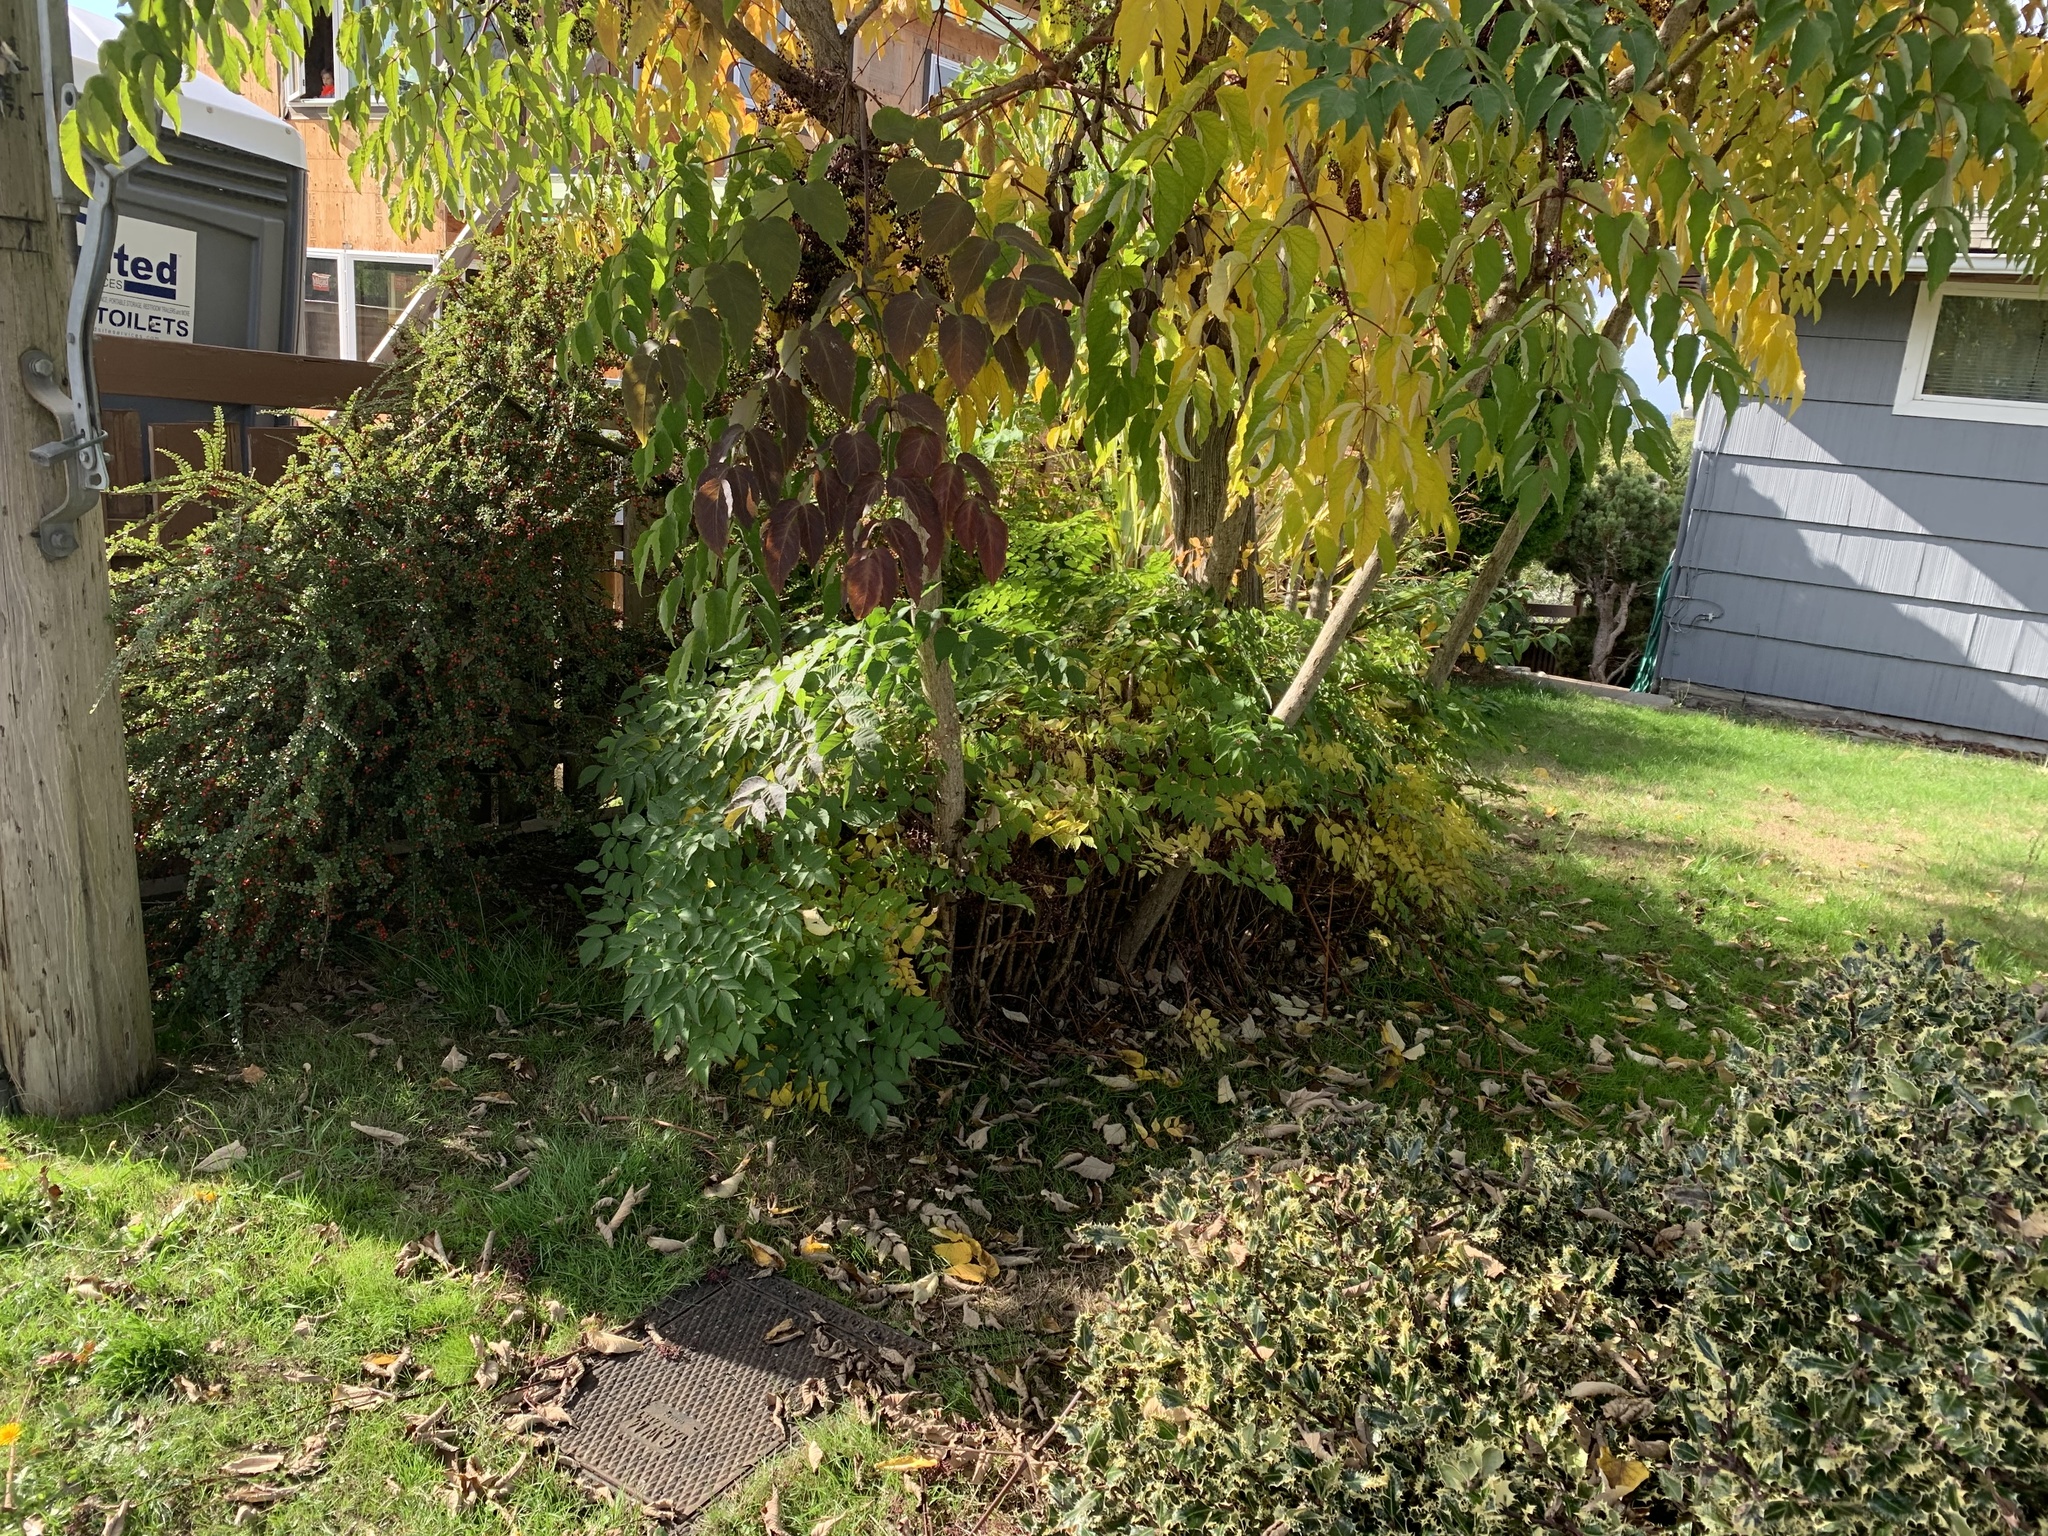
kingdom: Plantae
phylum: Tracheophyta
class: Magnoliopsida
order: Apiales
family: Araliaceae
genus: Aralia
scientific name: Aralia elata
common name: Japanese angelica-tree
